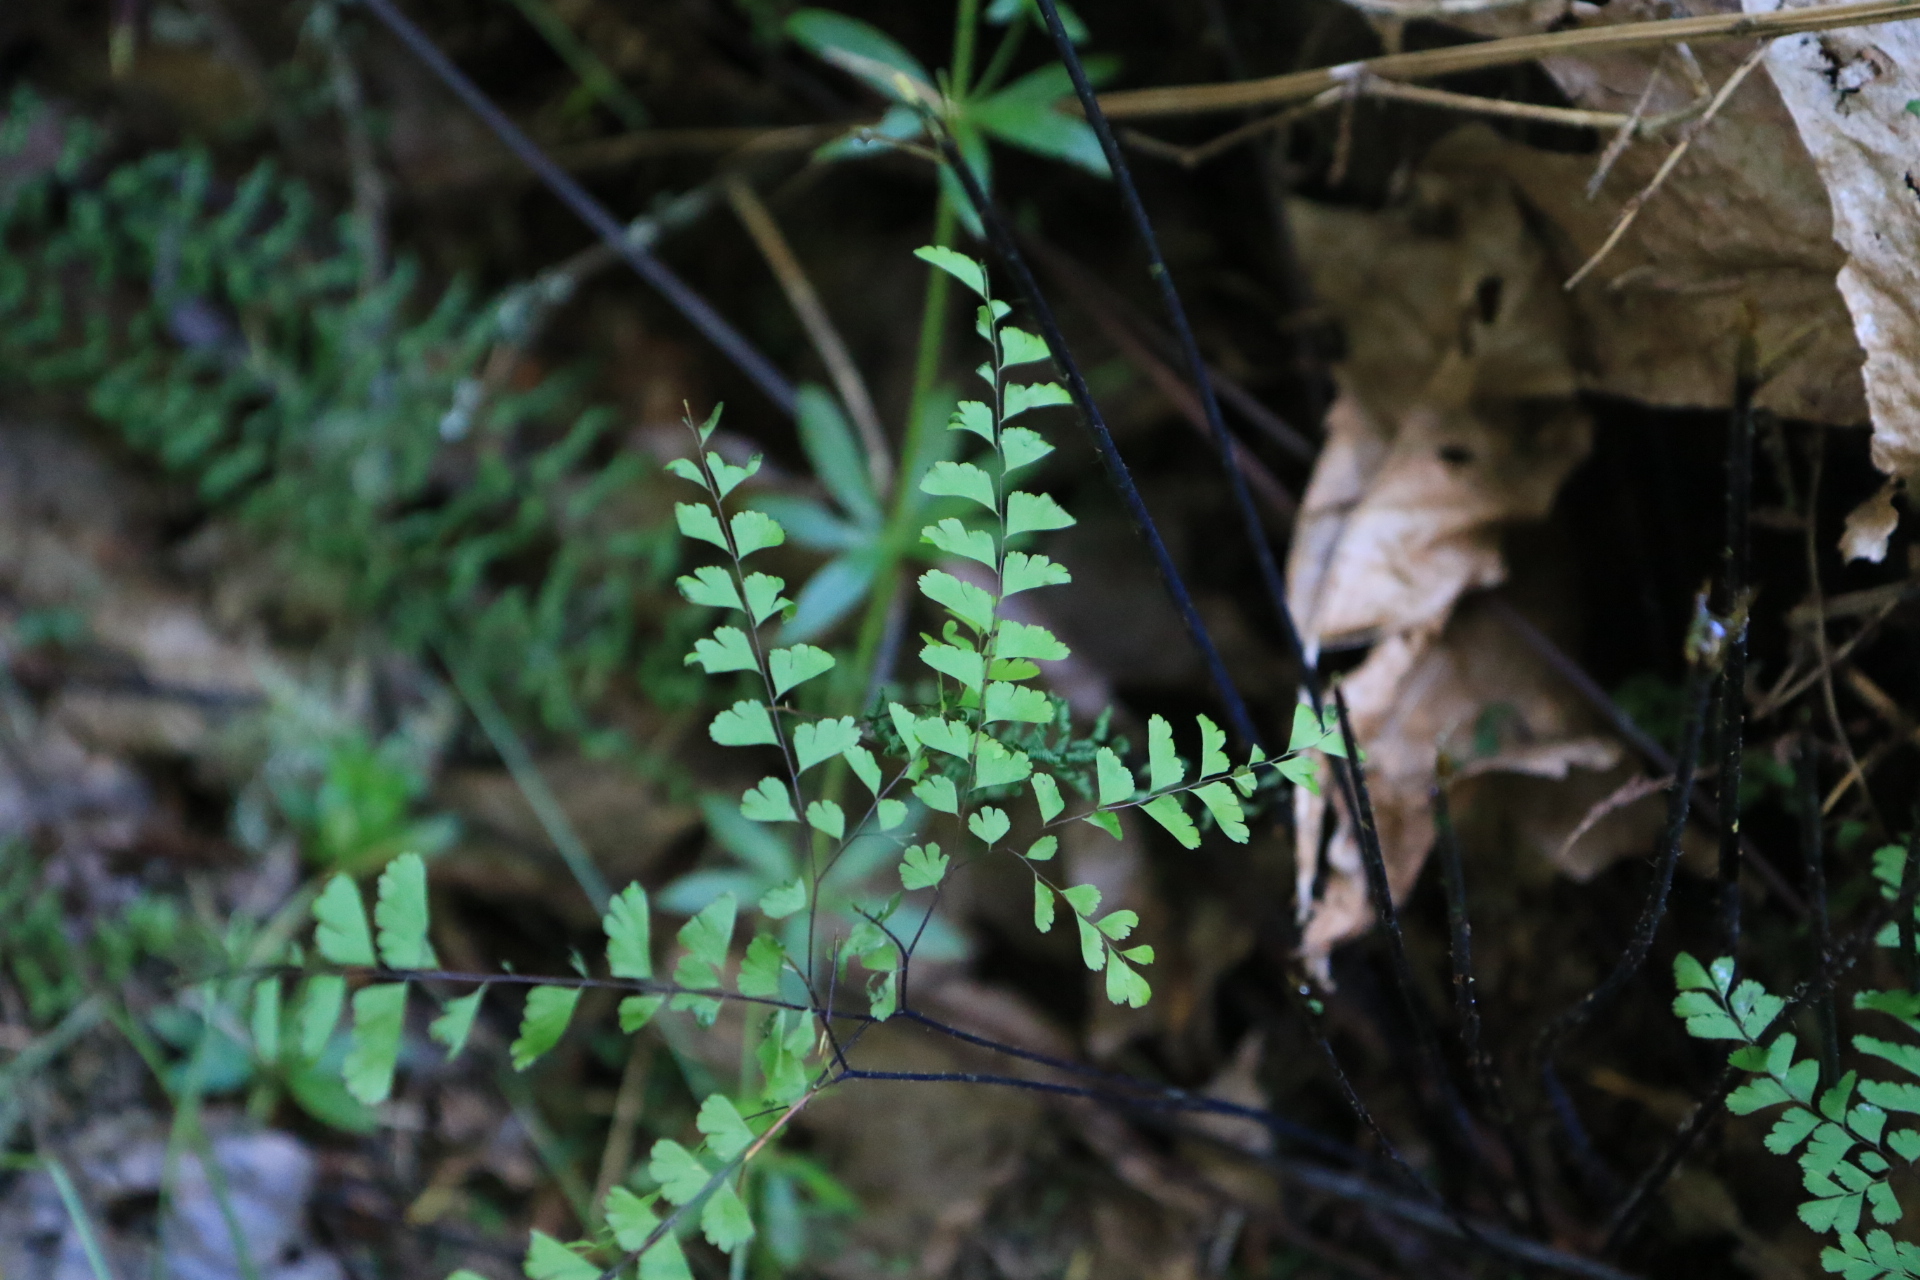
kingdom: Plantae
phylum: Tracheophyta
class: Polypodiopsida
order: Polypodiales
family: Pteridaceae
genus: Adiantum
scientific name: Adiantum aleuticum
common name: Aleutian maidenhair fern
